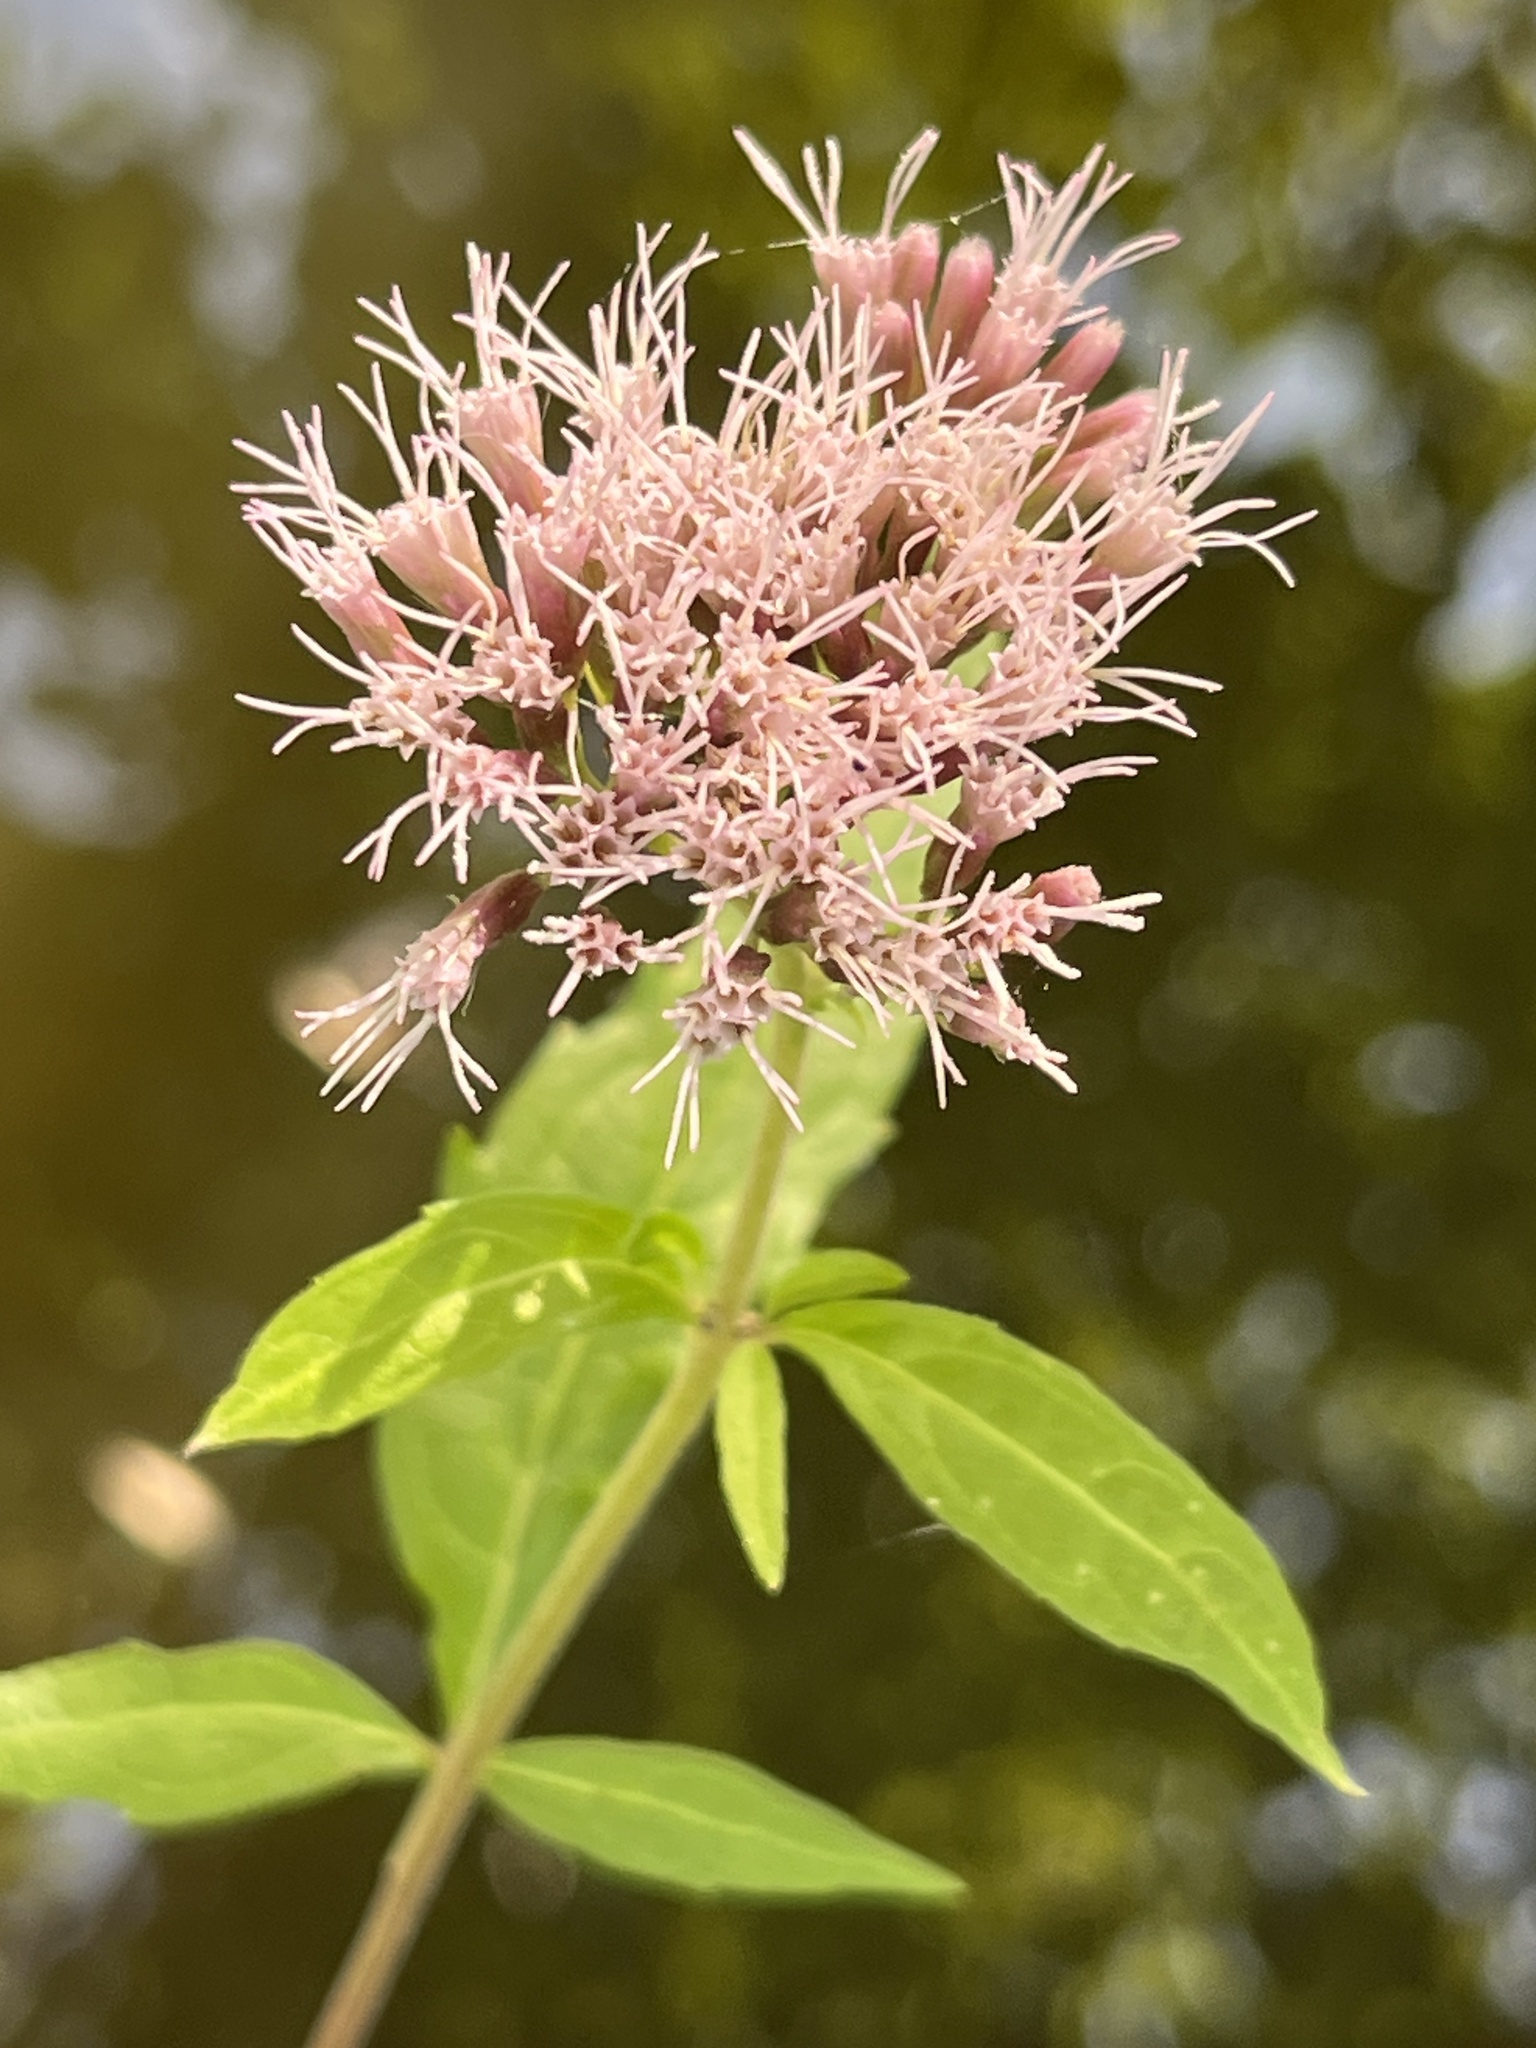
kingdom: Plantae
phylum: Tracheophyta
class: Magnoliopsida
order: Asterales
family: Asteraceae
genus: Eupatorium
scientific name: Eupatorium cannabinum
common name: Hemp-agrimony
